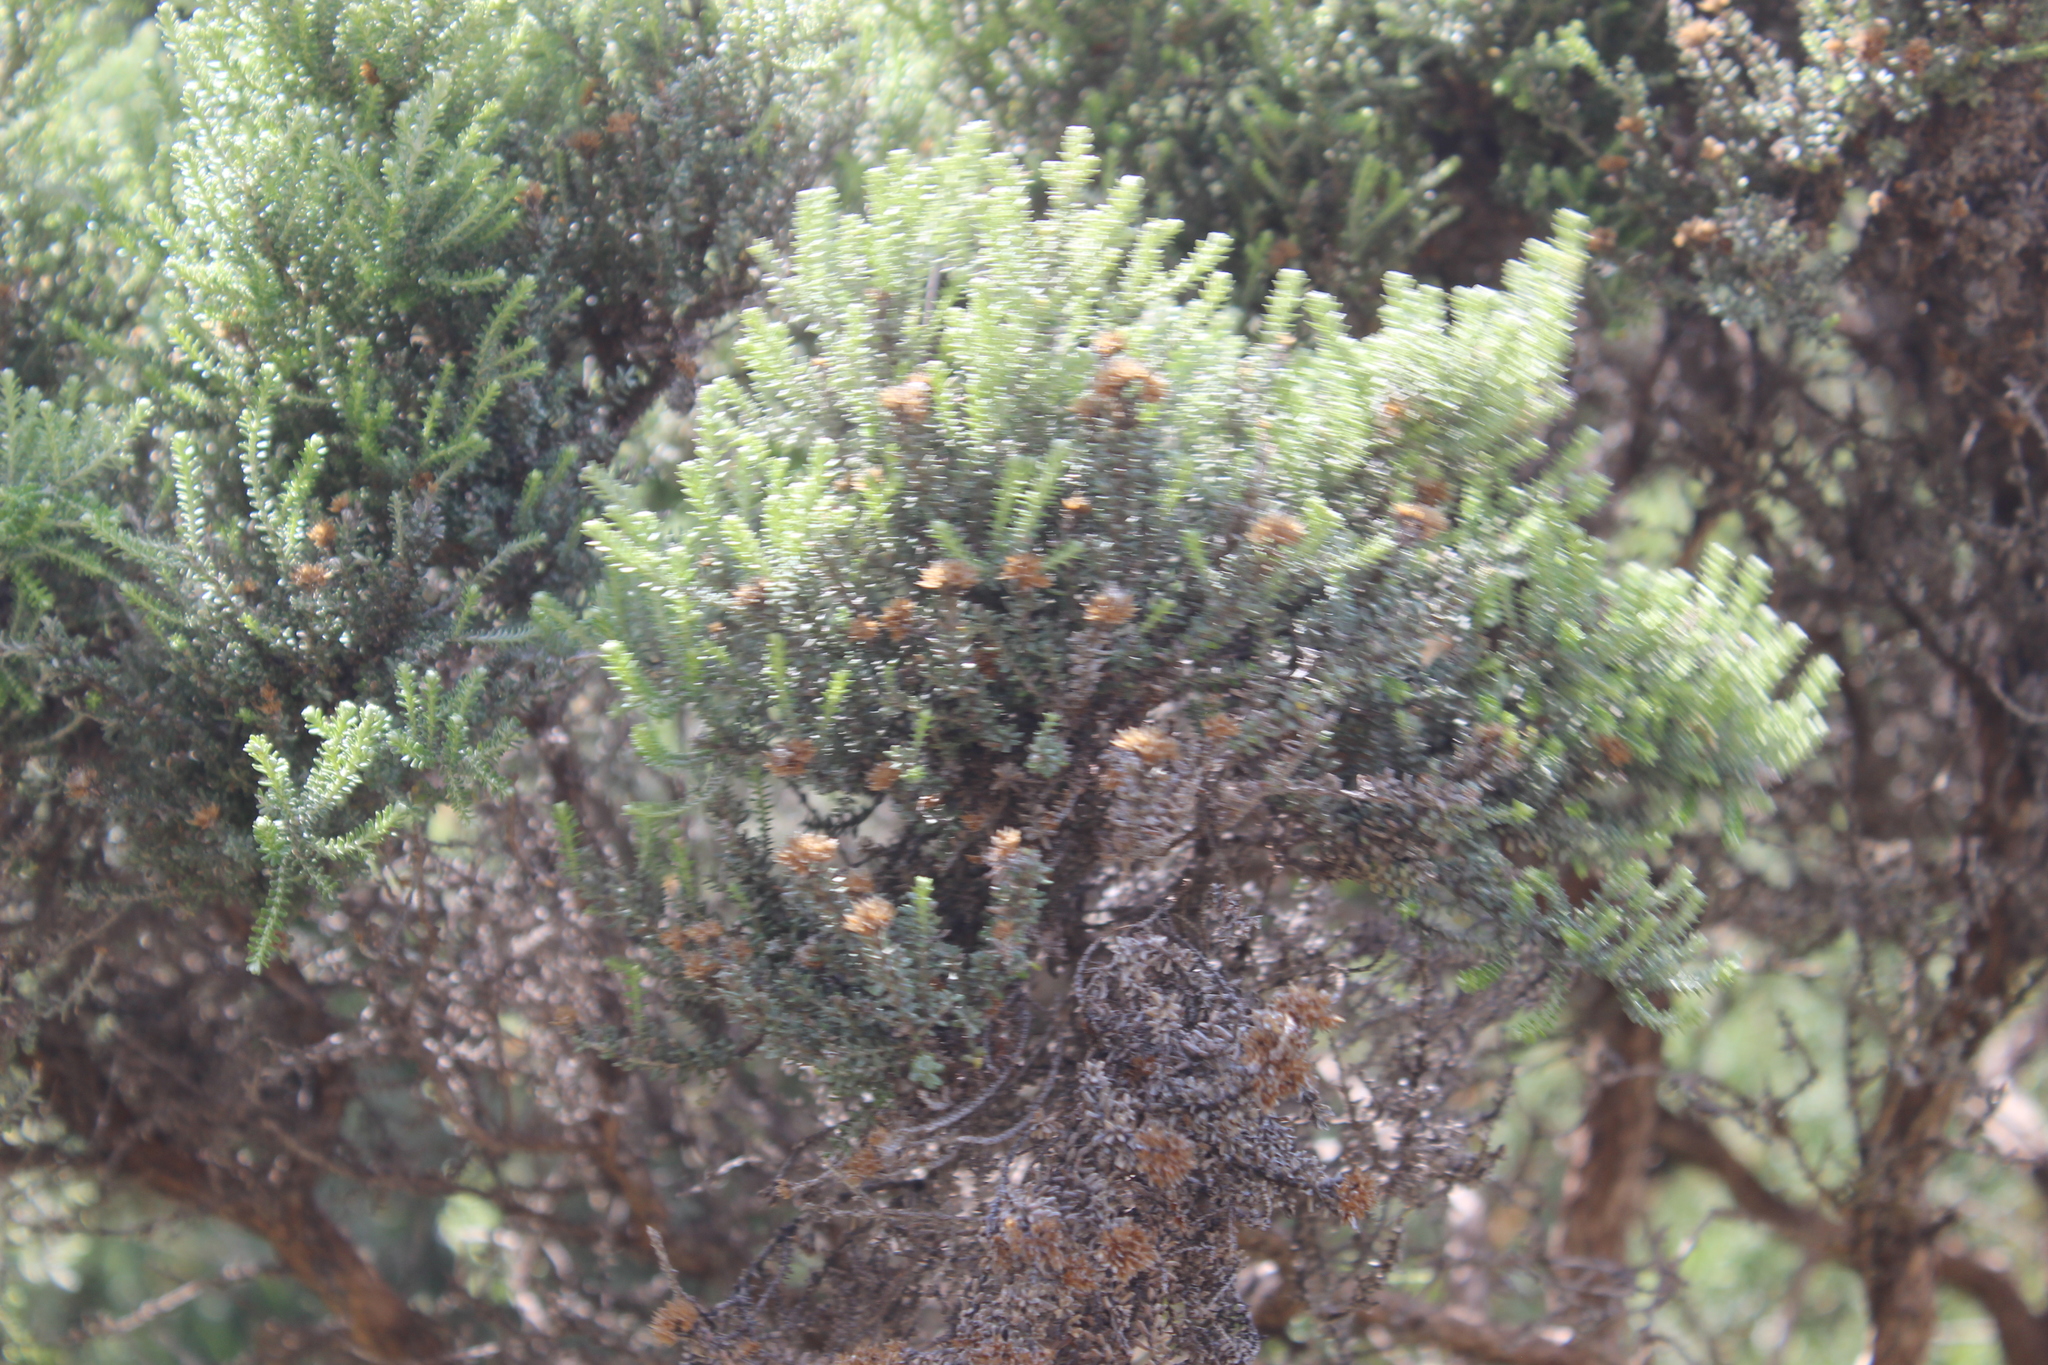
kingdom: Plantae
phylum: Tracheophyta
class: Magnoliopsida
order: Asterales
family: Asteraceae
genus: Ozothamnus
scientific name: Ozothamnus leptophyllus
